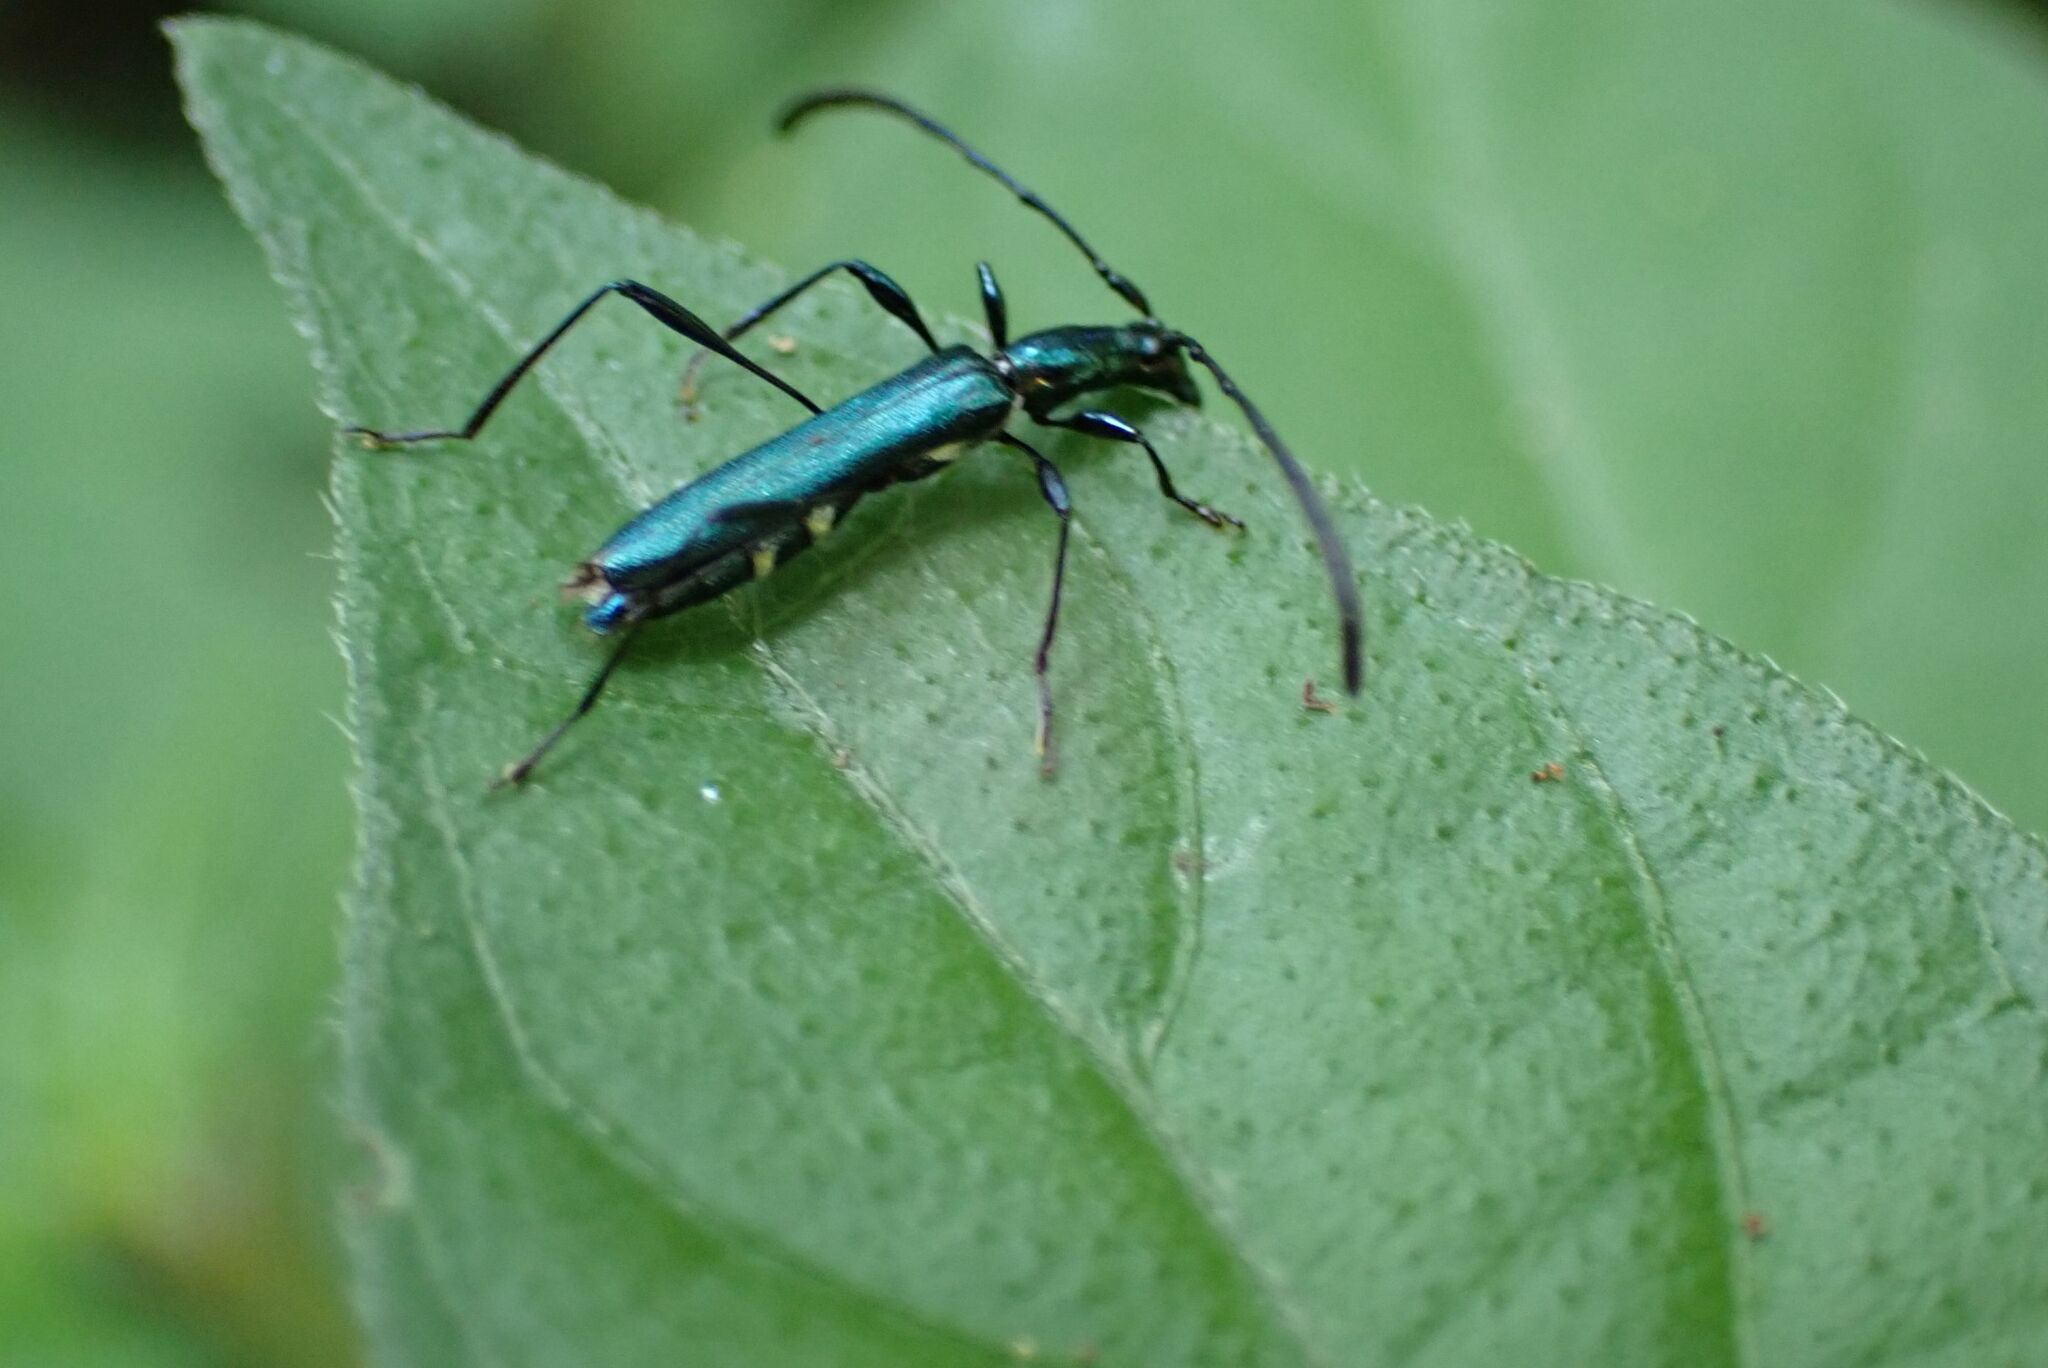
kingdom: Animalia
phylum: Arthropoda
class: Insecta
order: Coleoptera
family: Cerambycidae
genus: Hypocrites
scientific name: Hypocrites obtusipennis
